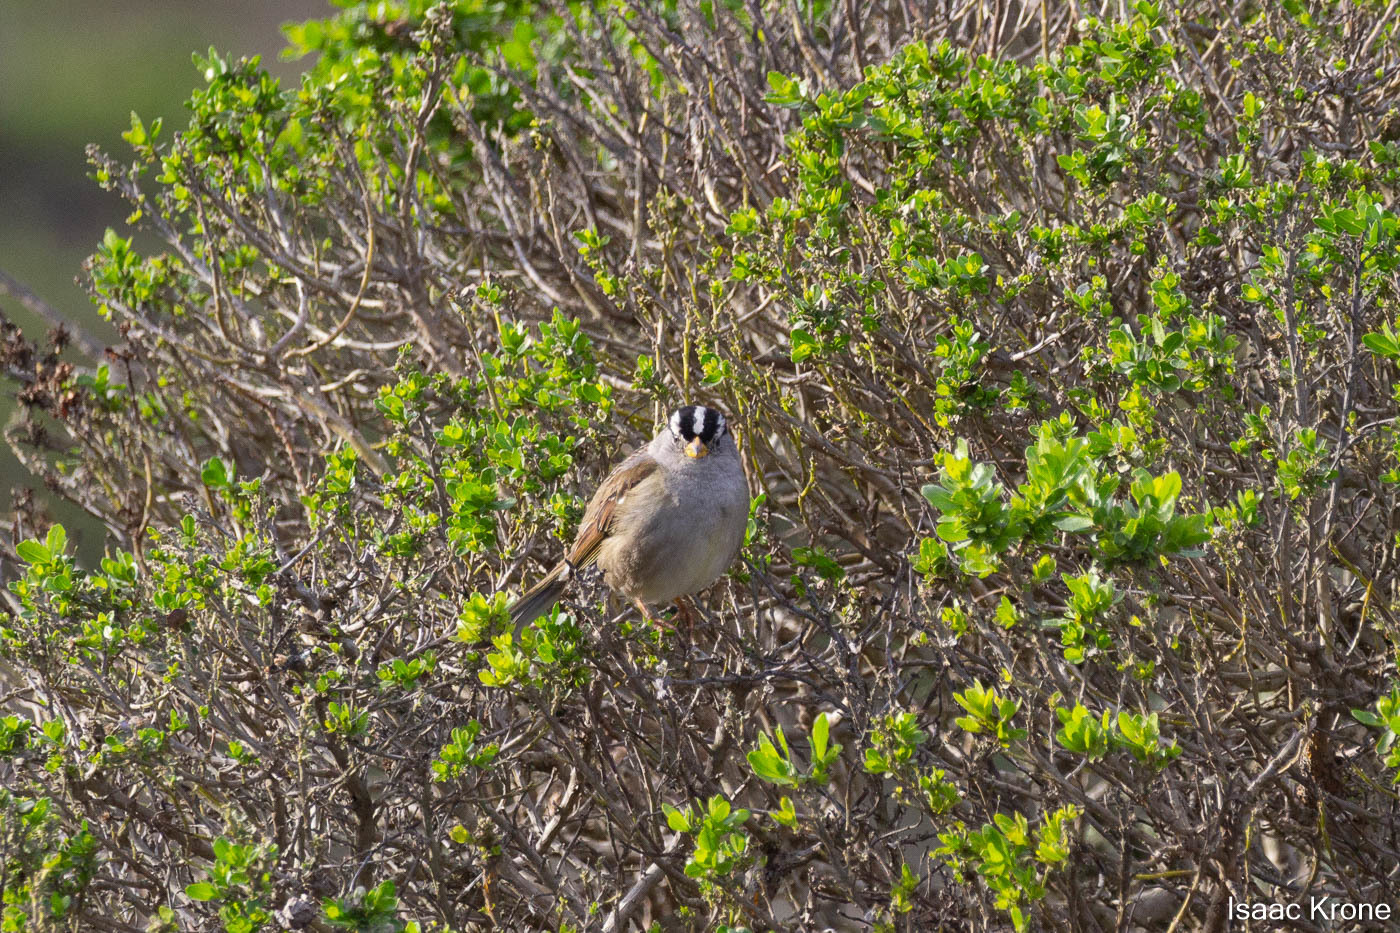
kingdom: Animalia
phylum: Chordata
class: Aves
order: Passeriformes
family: Passerellidae
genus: Zonotrichia
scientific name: Zonotrichia leucophrys
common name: White-crowned sparrow
